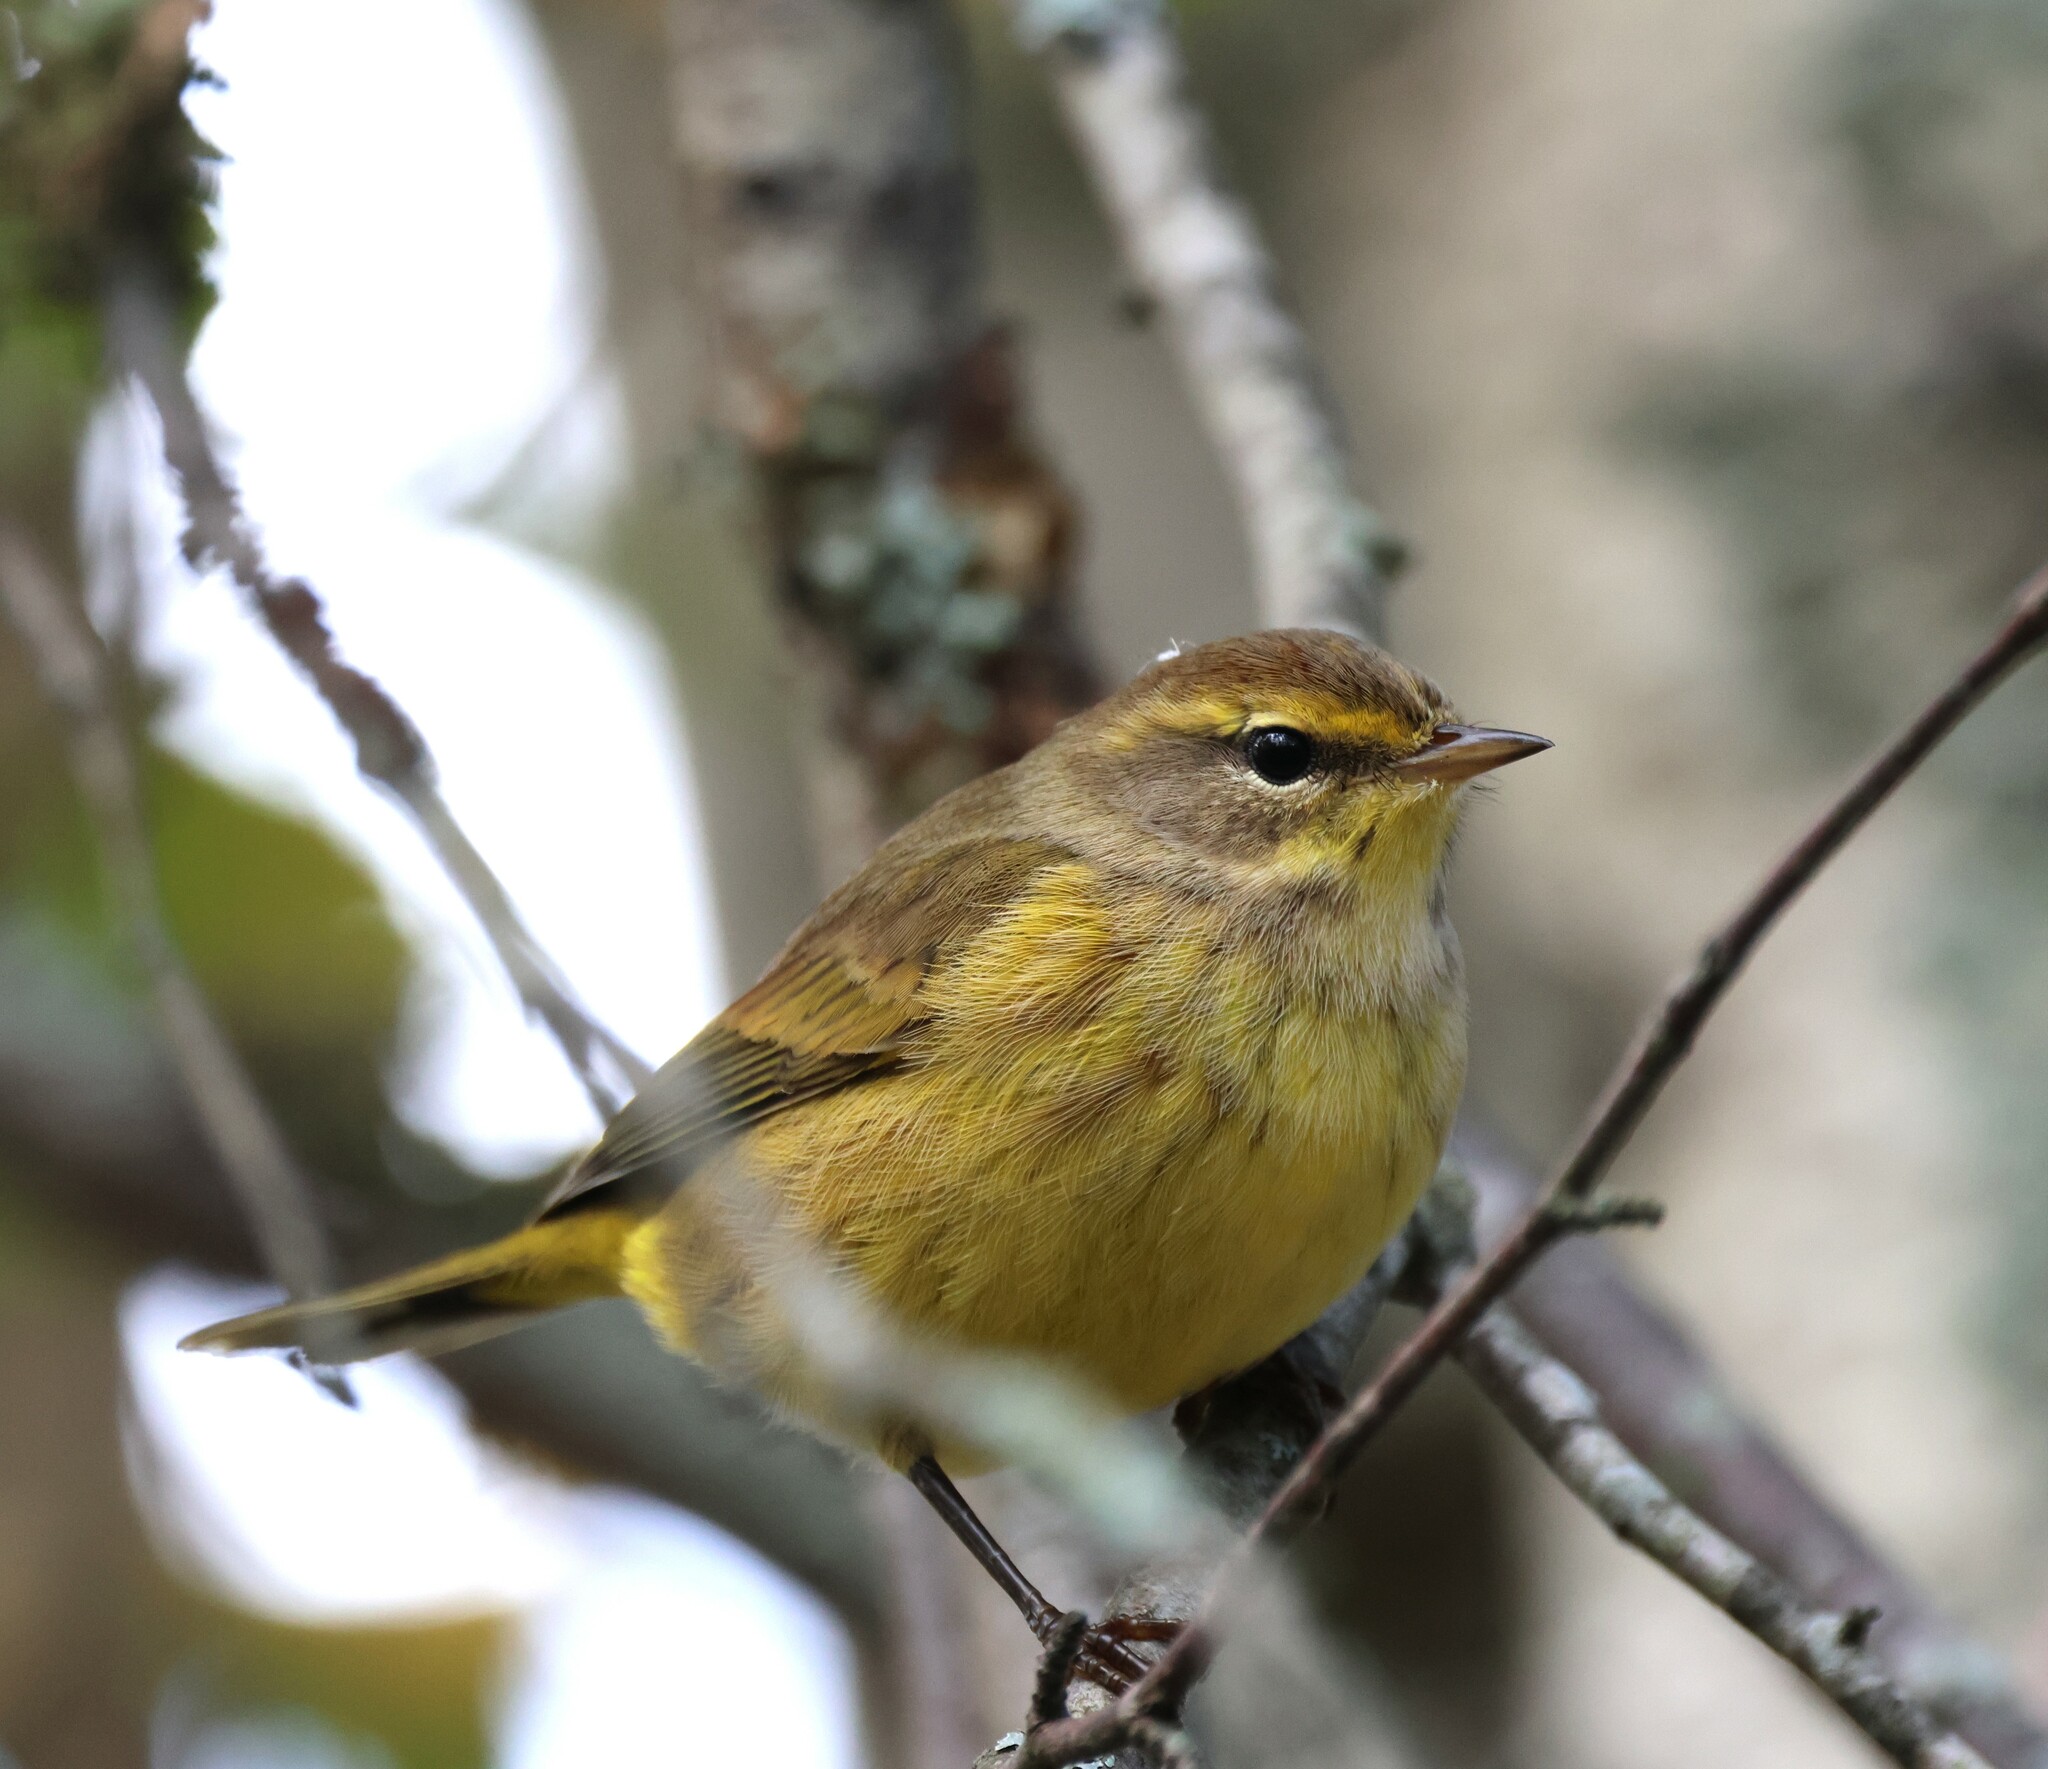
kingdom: Animalia
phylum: Chordata
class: Aves
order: Passeriformes
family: Parulidae
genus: Setophaga
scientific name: Setophaga palmarum
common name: Palm warbler
